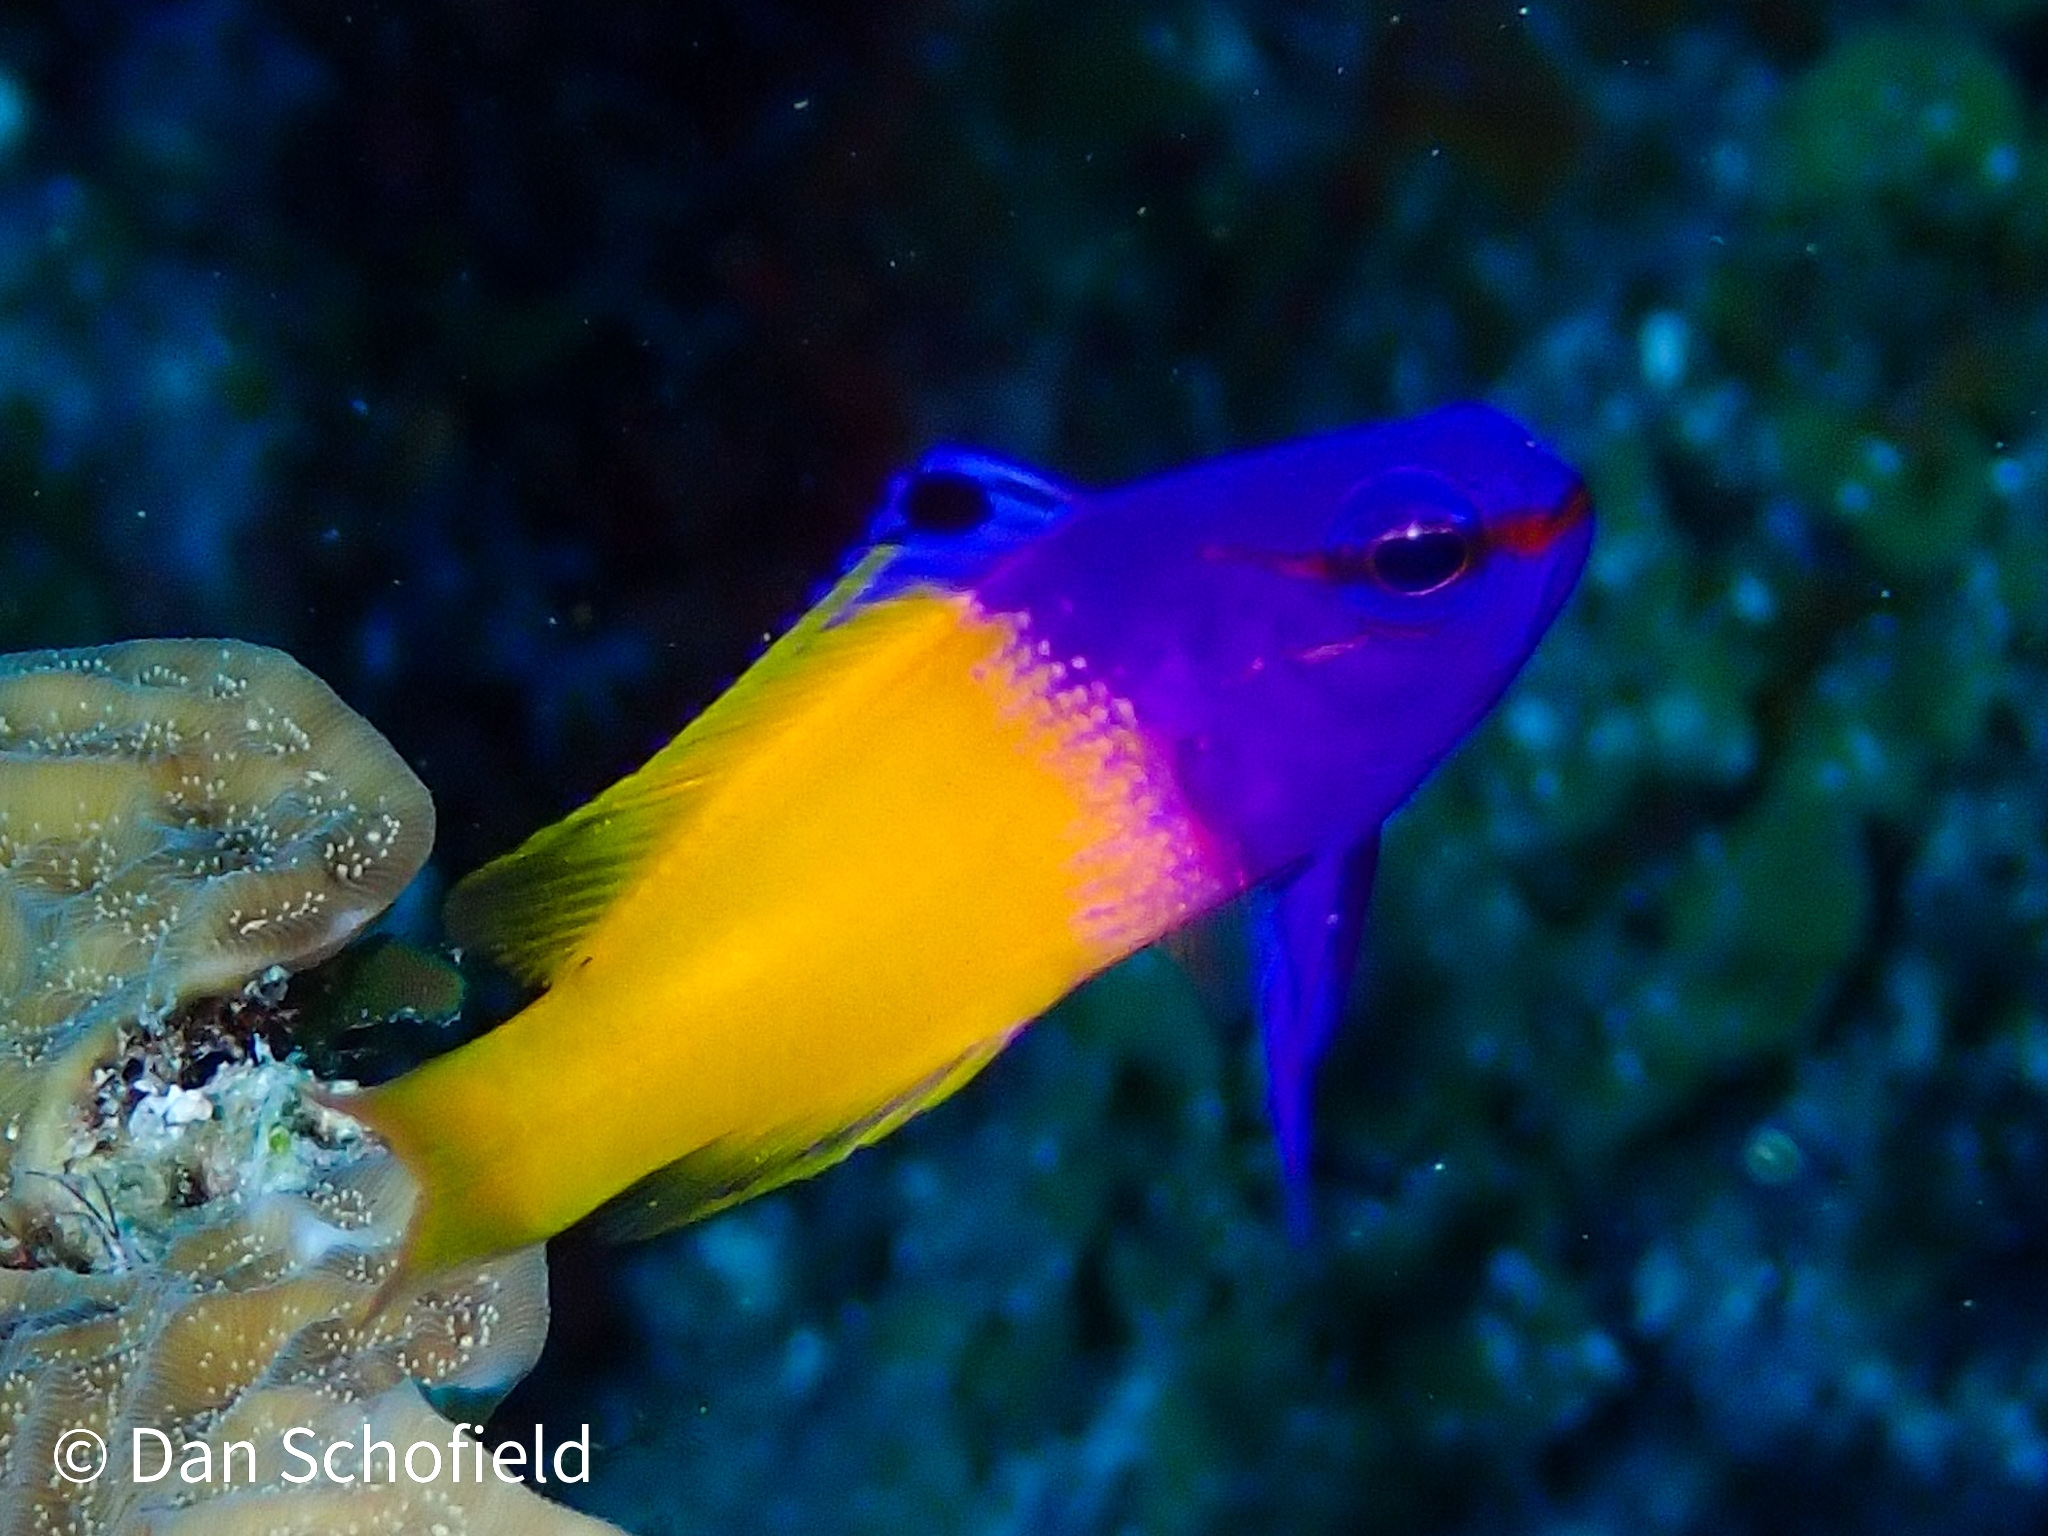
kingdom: Animalia
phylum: Chordata
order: Perciformes
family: Grammatidae
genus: Gramma
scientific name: Gramma loreto
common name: Fairy basslet
